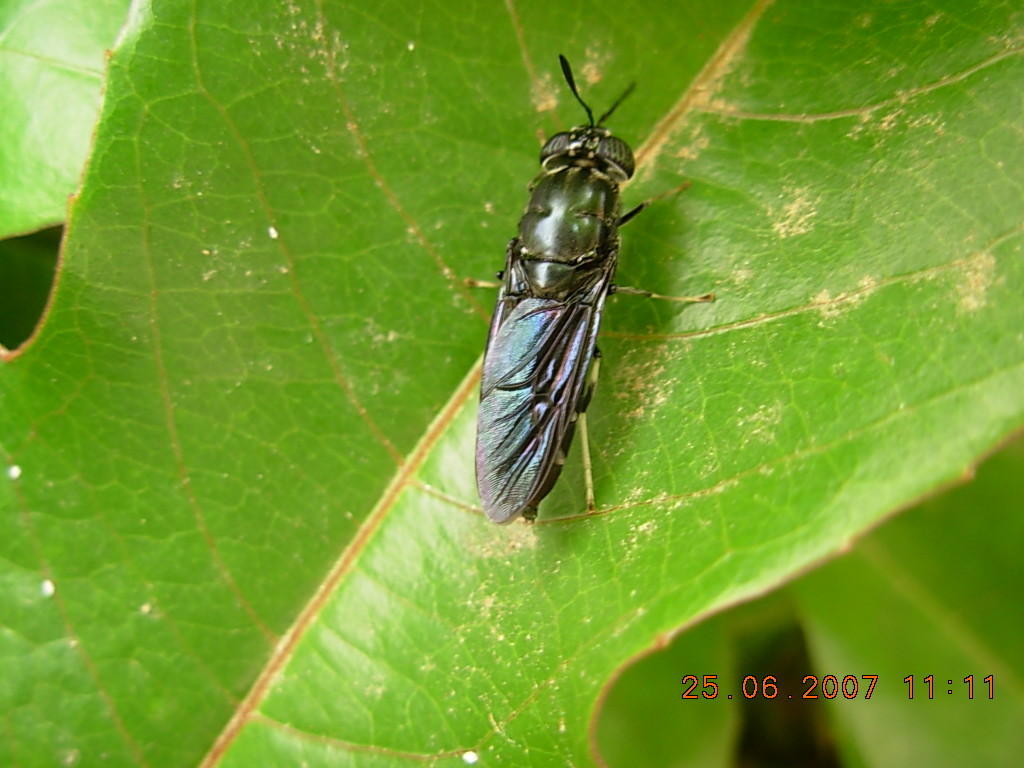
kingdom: Animalia
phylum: Arthropoda
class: Insecta
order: Diptera
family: Stratiomyidae
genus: Hermetia
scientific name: Hermetia illucens
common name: Black soldier fly
